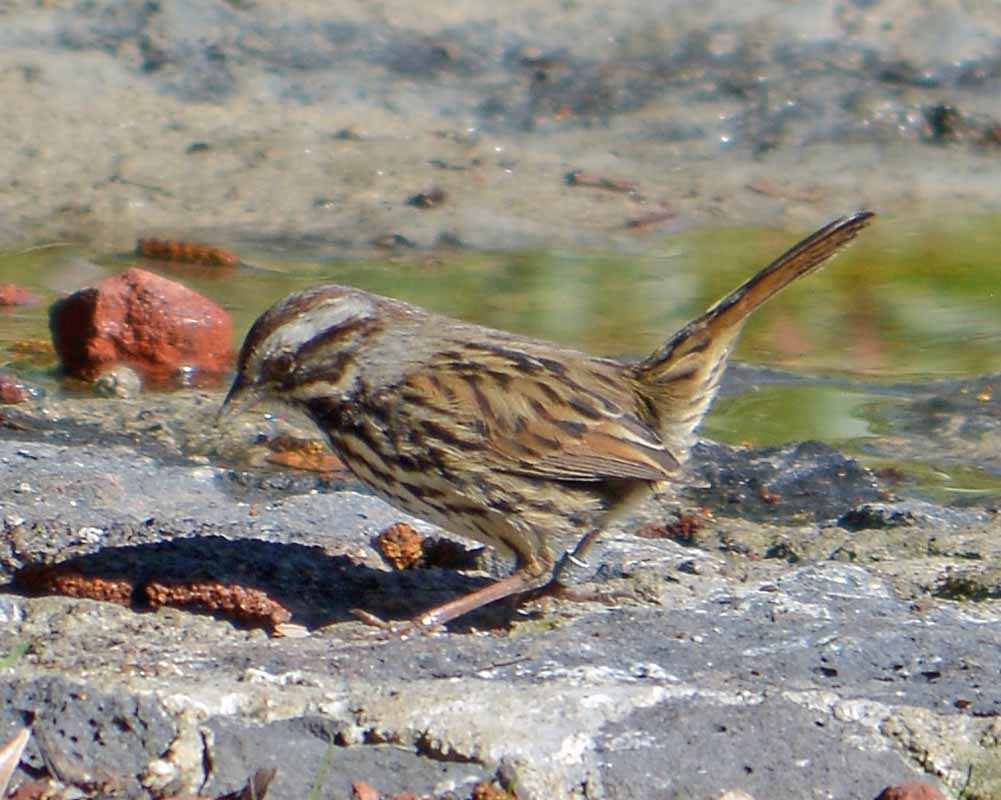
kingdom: Animalia
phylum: Chordata
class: Aves
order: Passeriformes
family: Passerellidae
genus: Melospiza
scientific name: Melospiza melodia
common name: Song sparrow
